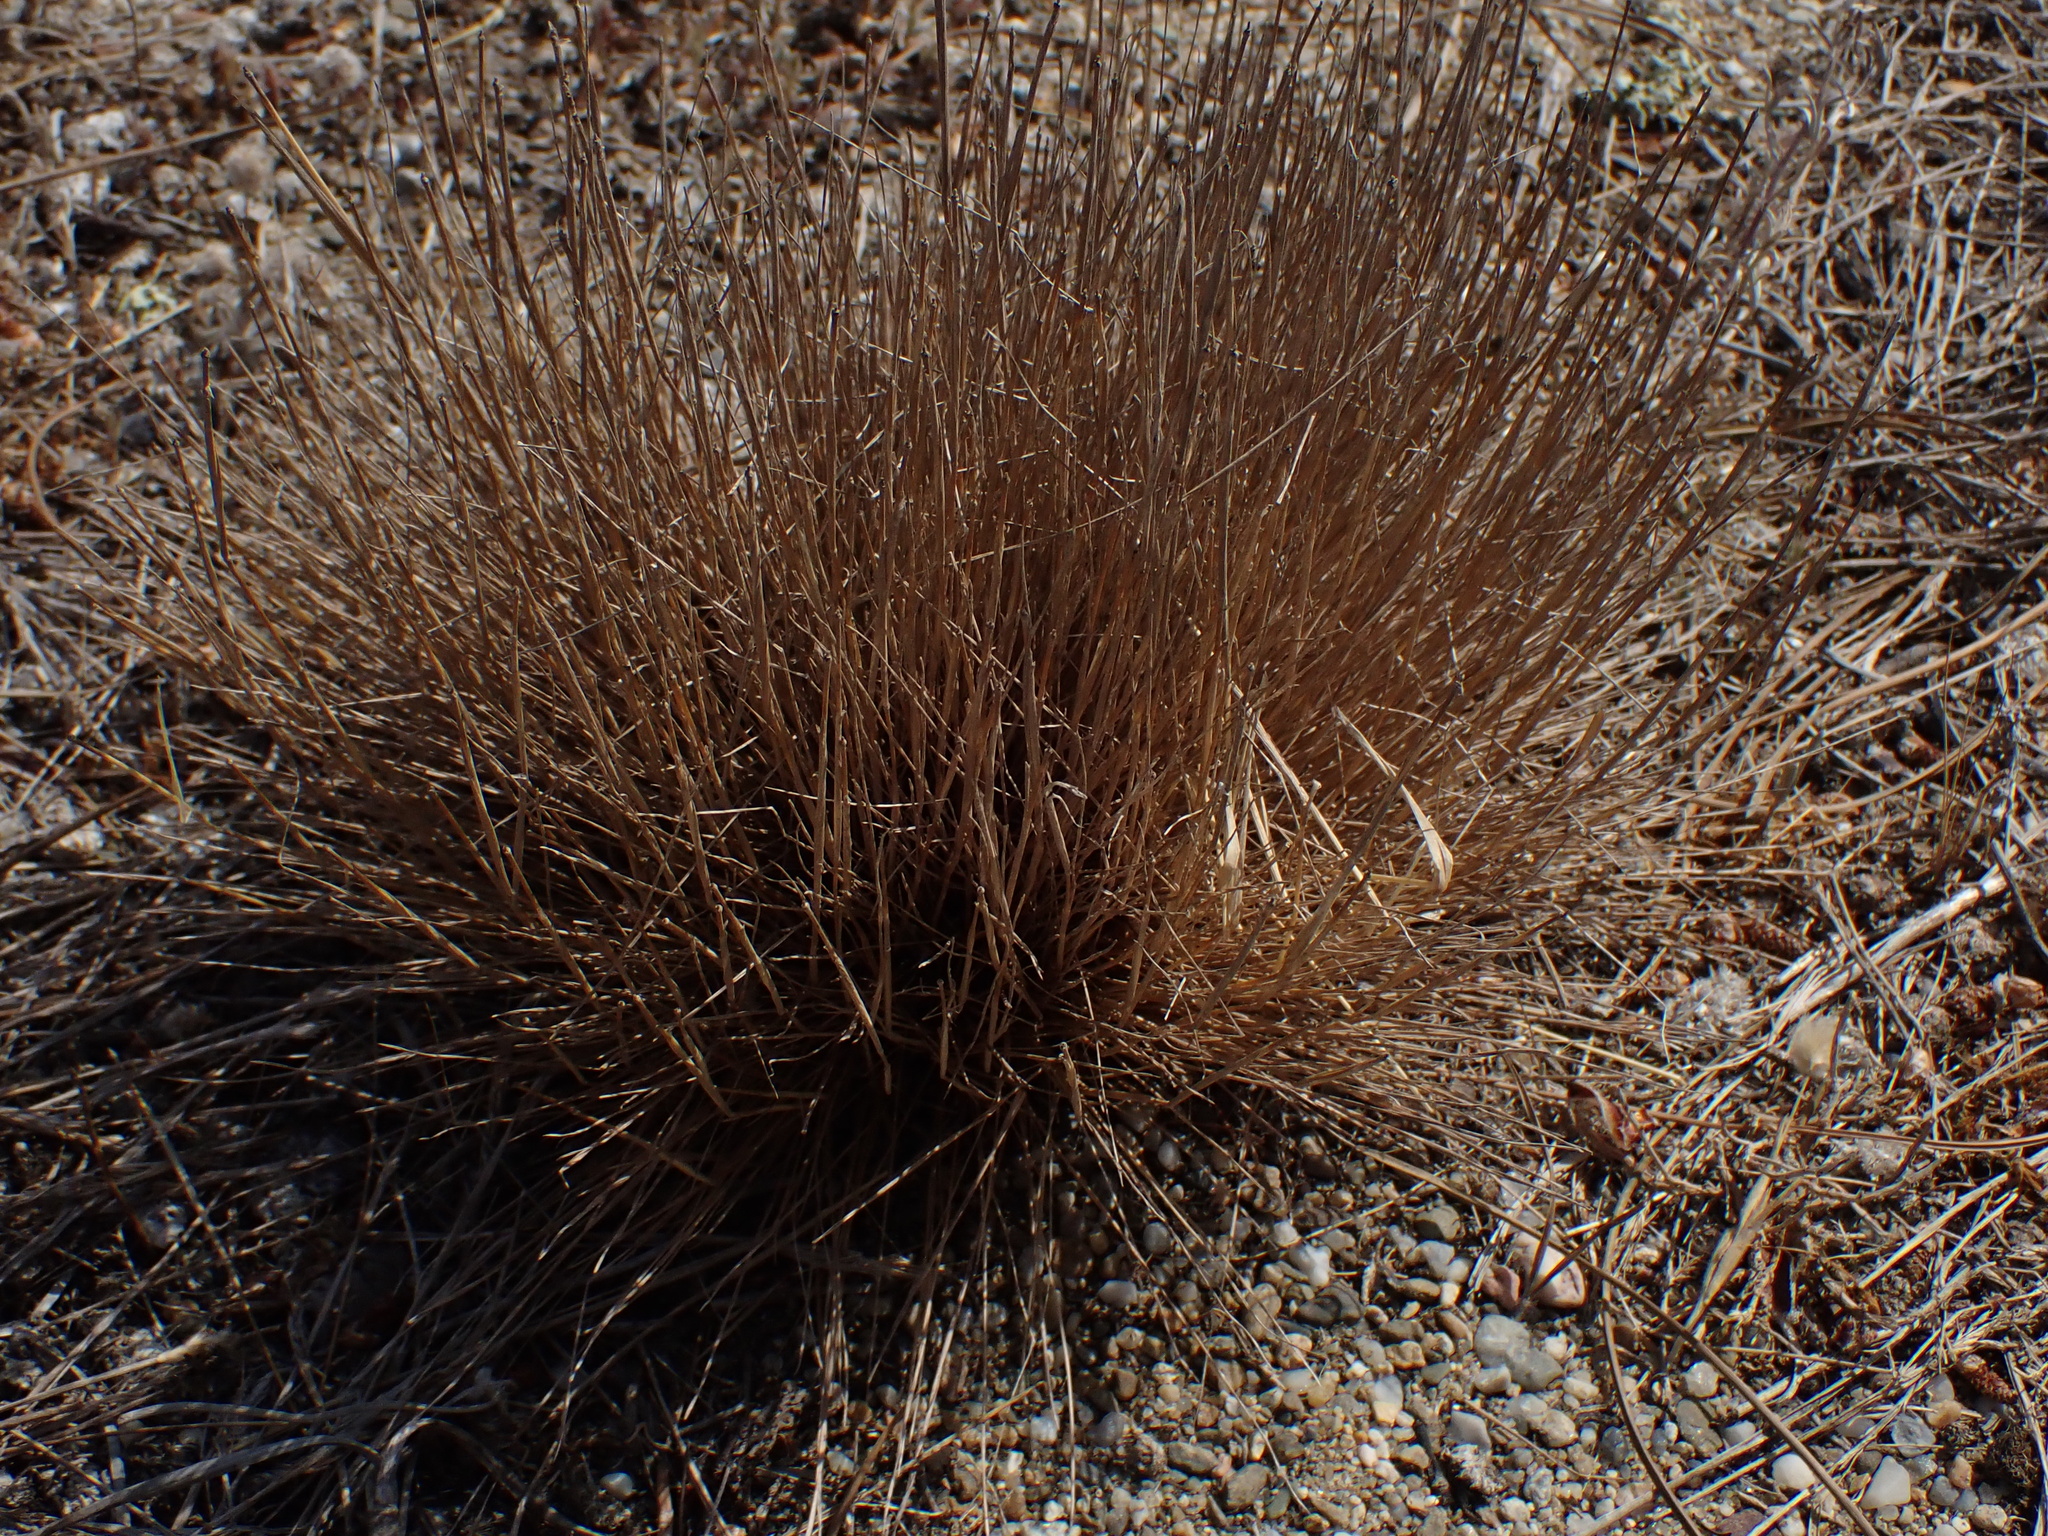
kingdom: Plantae
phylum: Tracheophyta
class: Liliopsida
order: Poales
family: Poaceae
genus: Corynephorus
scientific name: Corynephorus canescens
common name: Grey hair-grass
